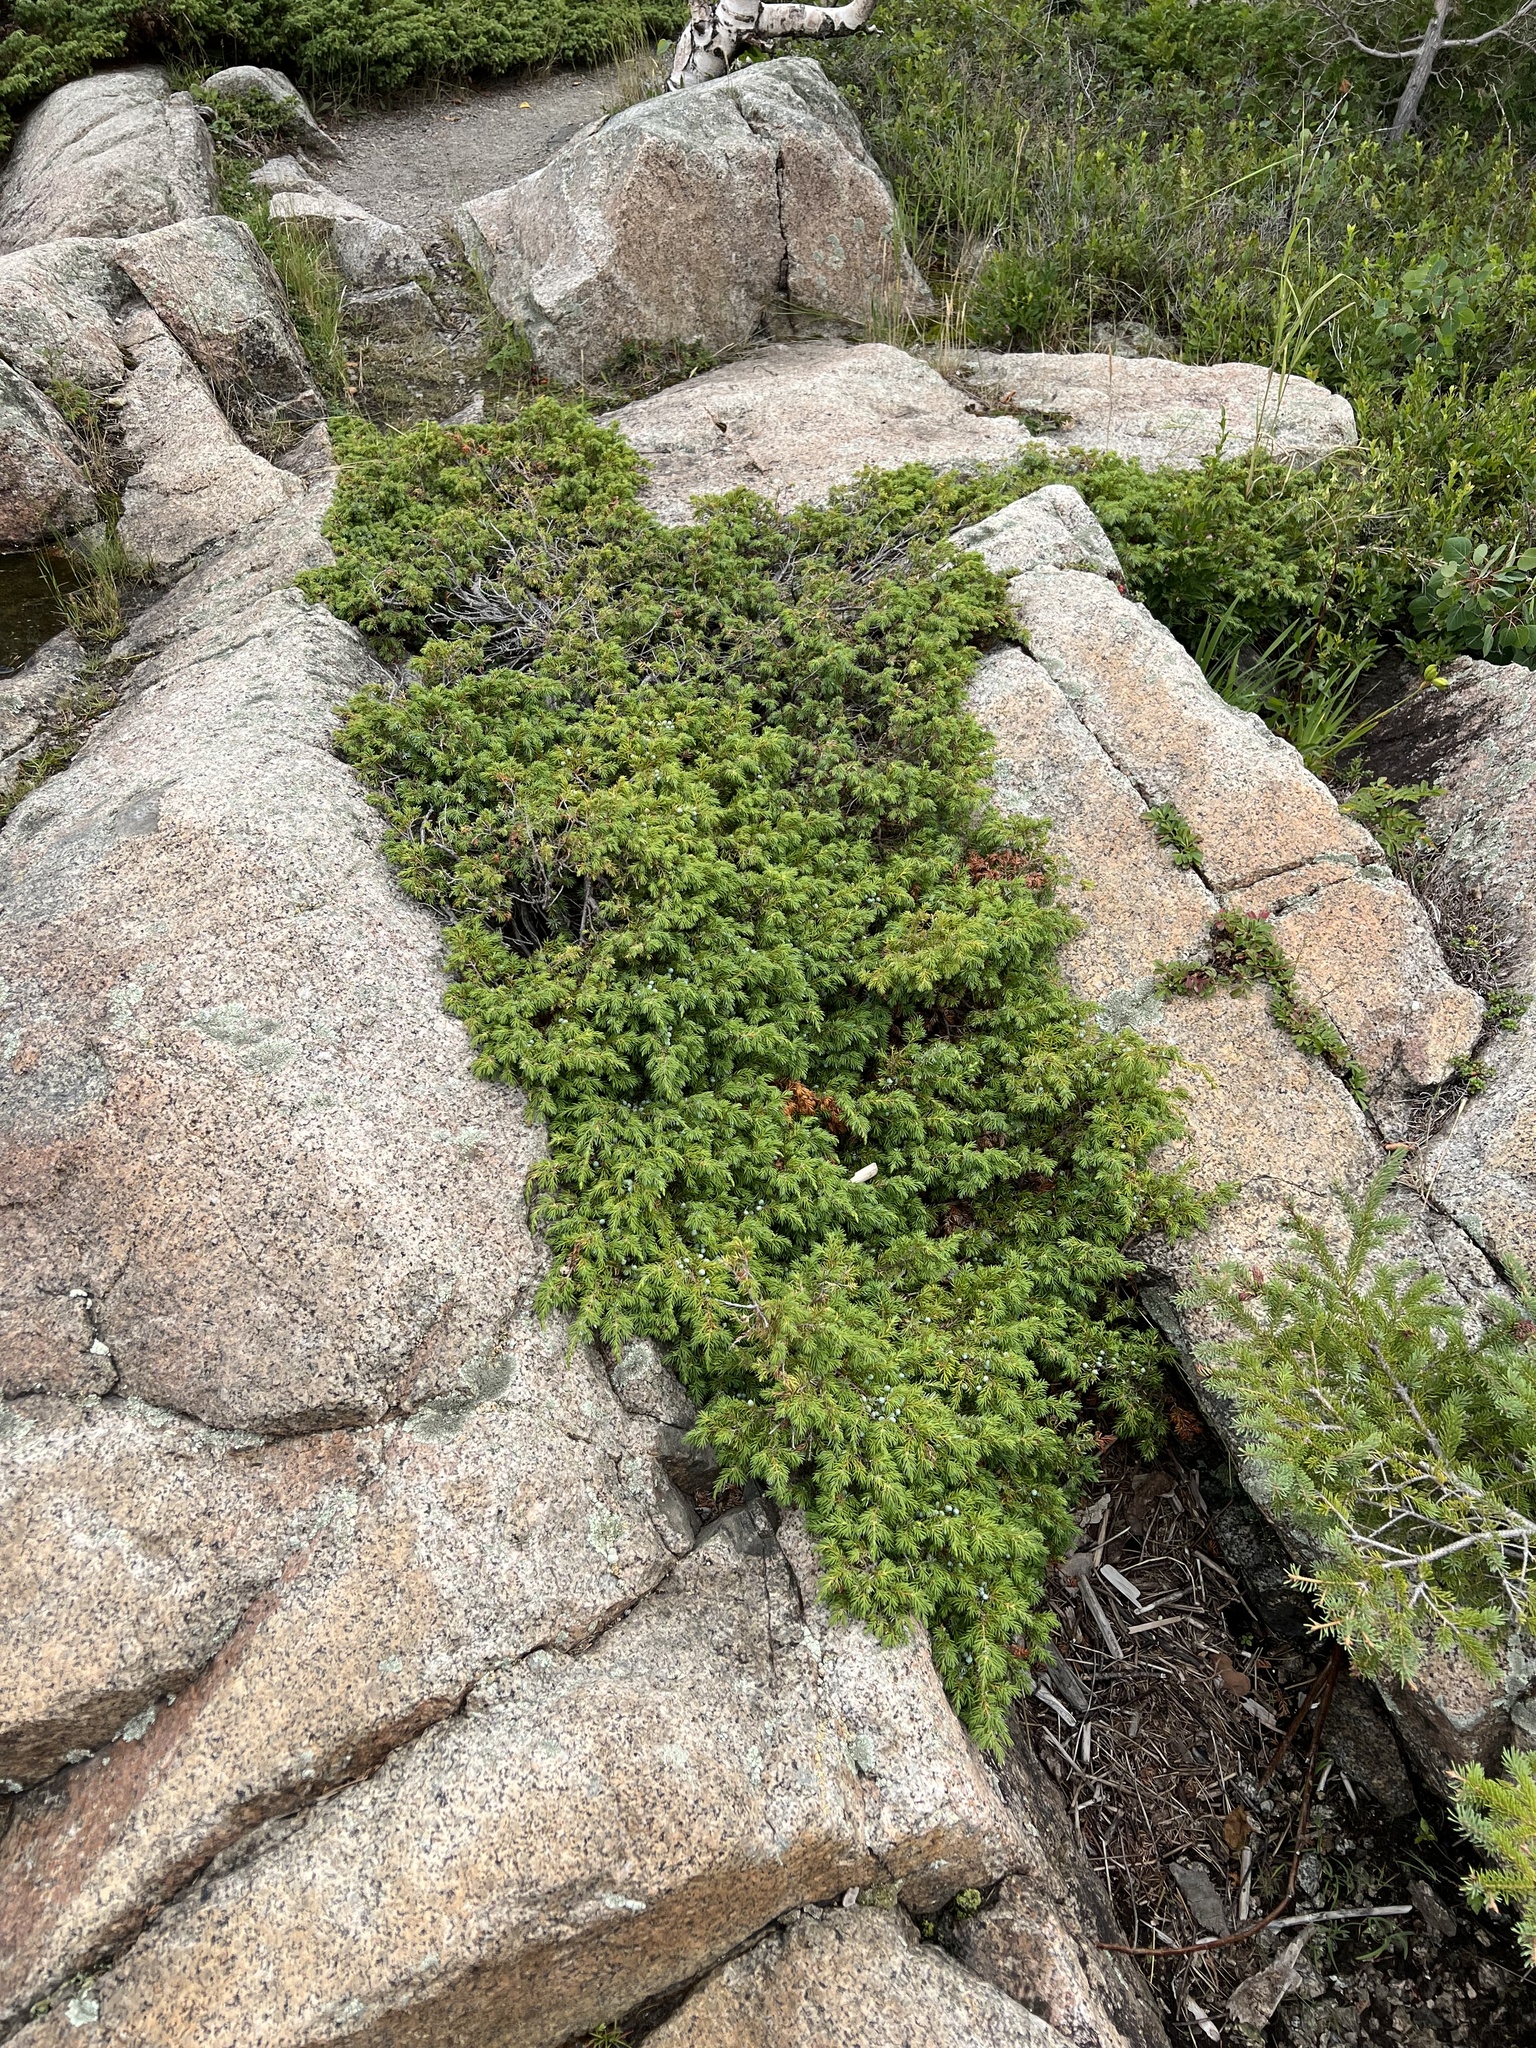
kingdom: Plantae
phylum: Tracheophyta
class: Pinopsida
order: Pinales
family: Cupressaceae
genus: Juniperus
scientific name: Juniperus communis
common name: Common juniper
